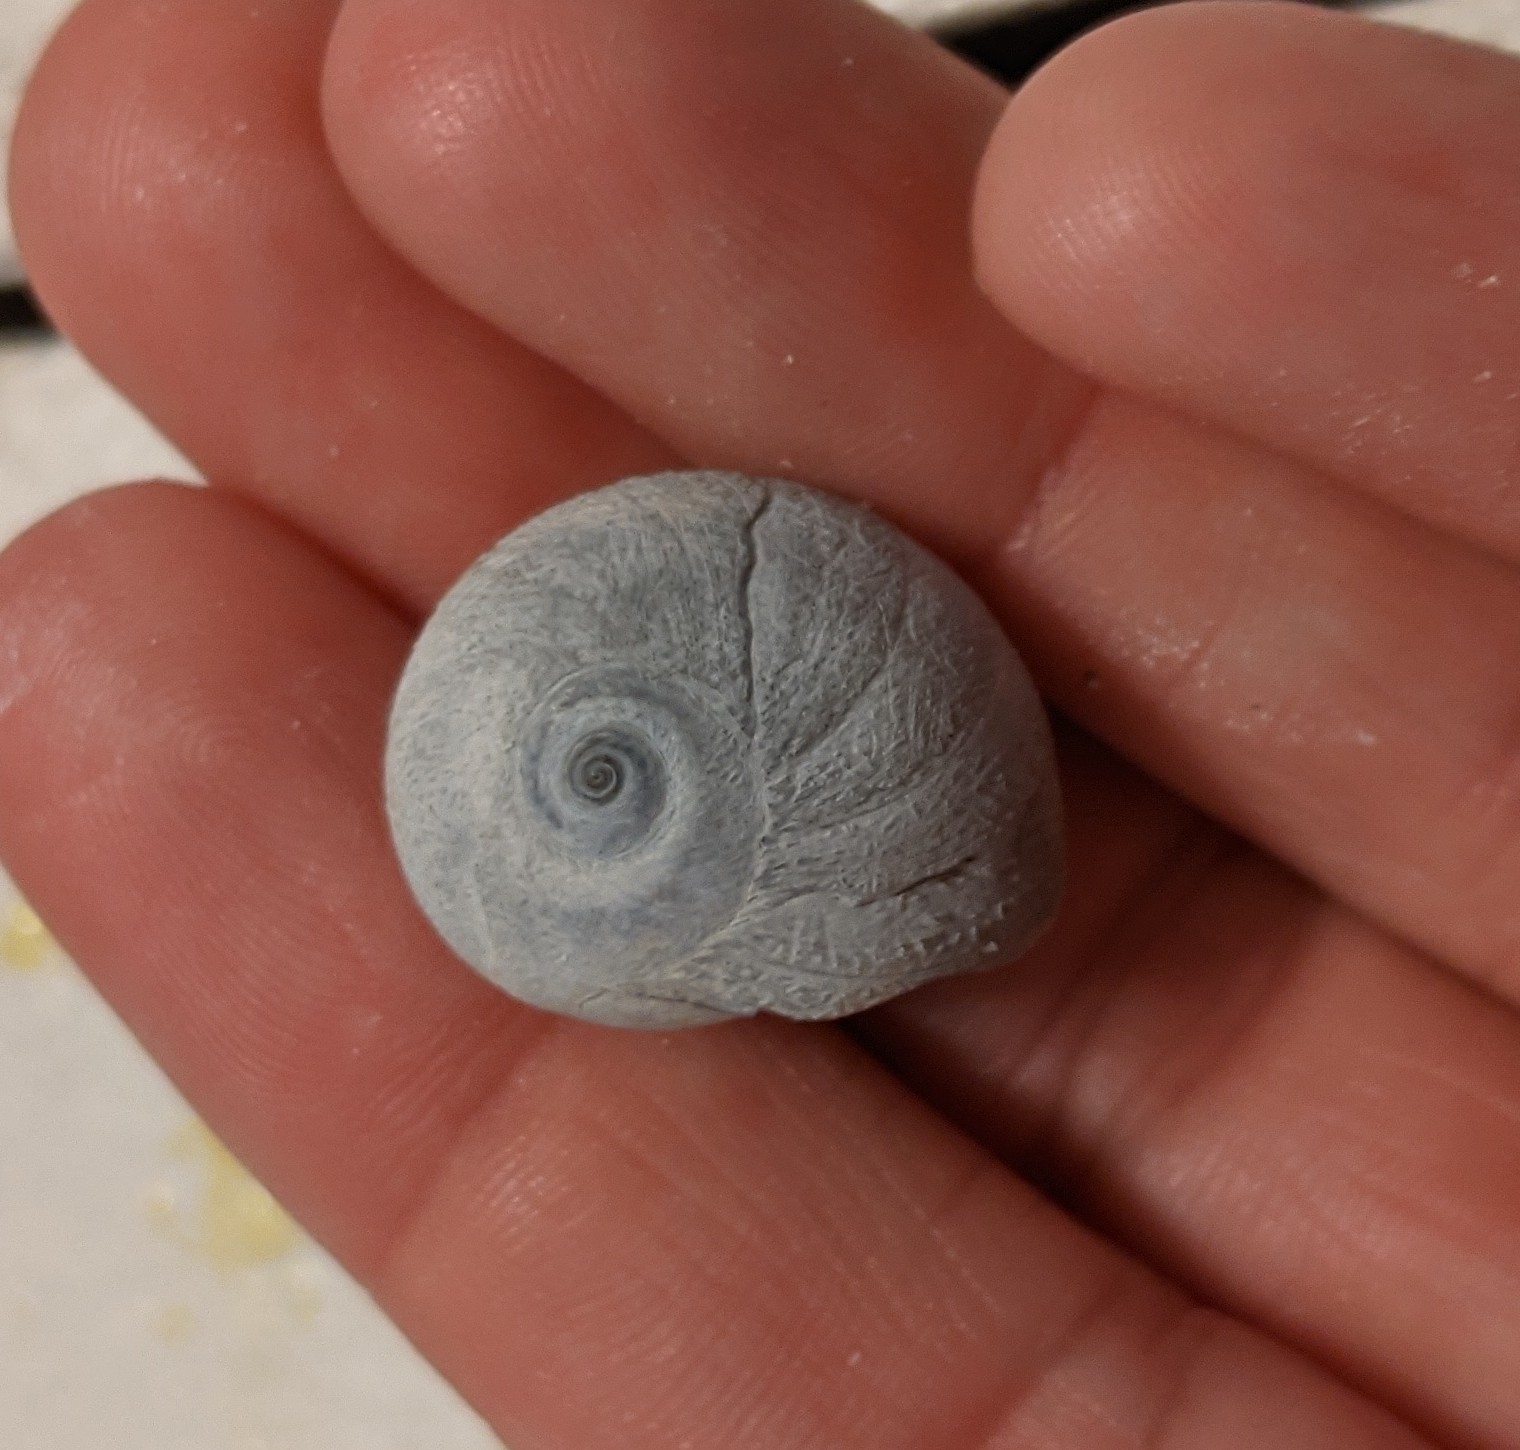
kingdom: Animalia
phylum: Mollusca
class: Gastropoda
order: Littorinimorpha
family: Naticidae
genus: Neverita
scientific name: Neverita delessertiana
